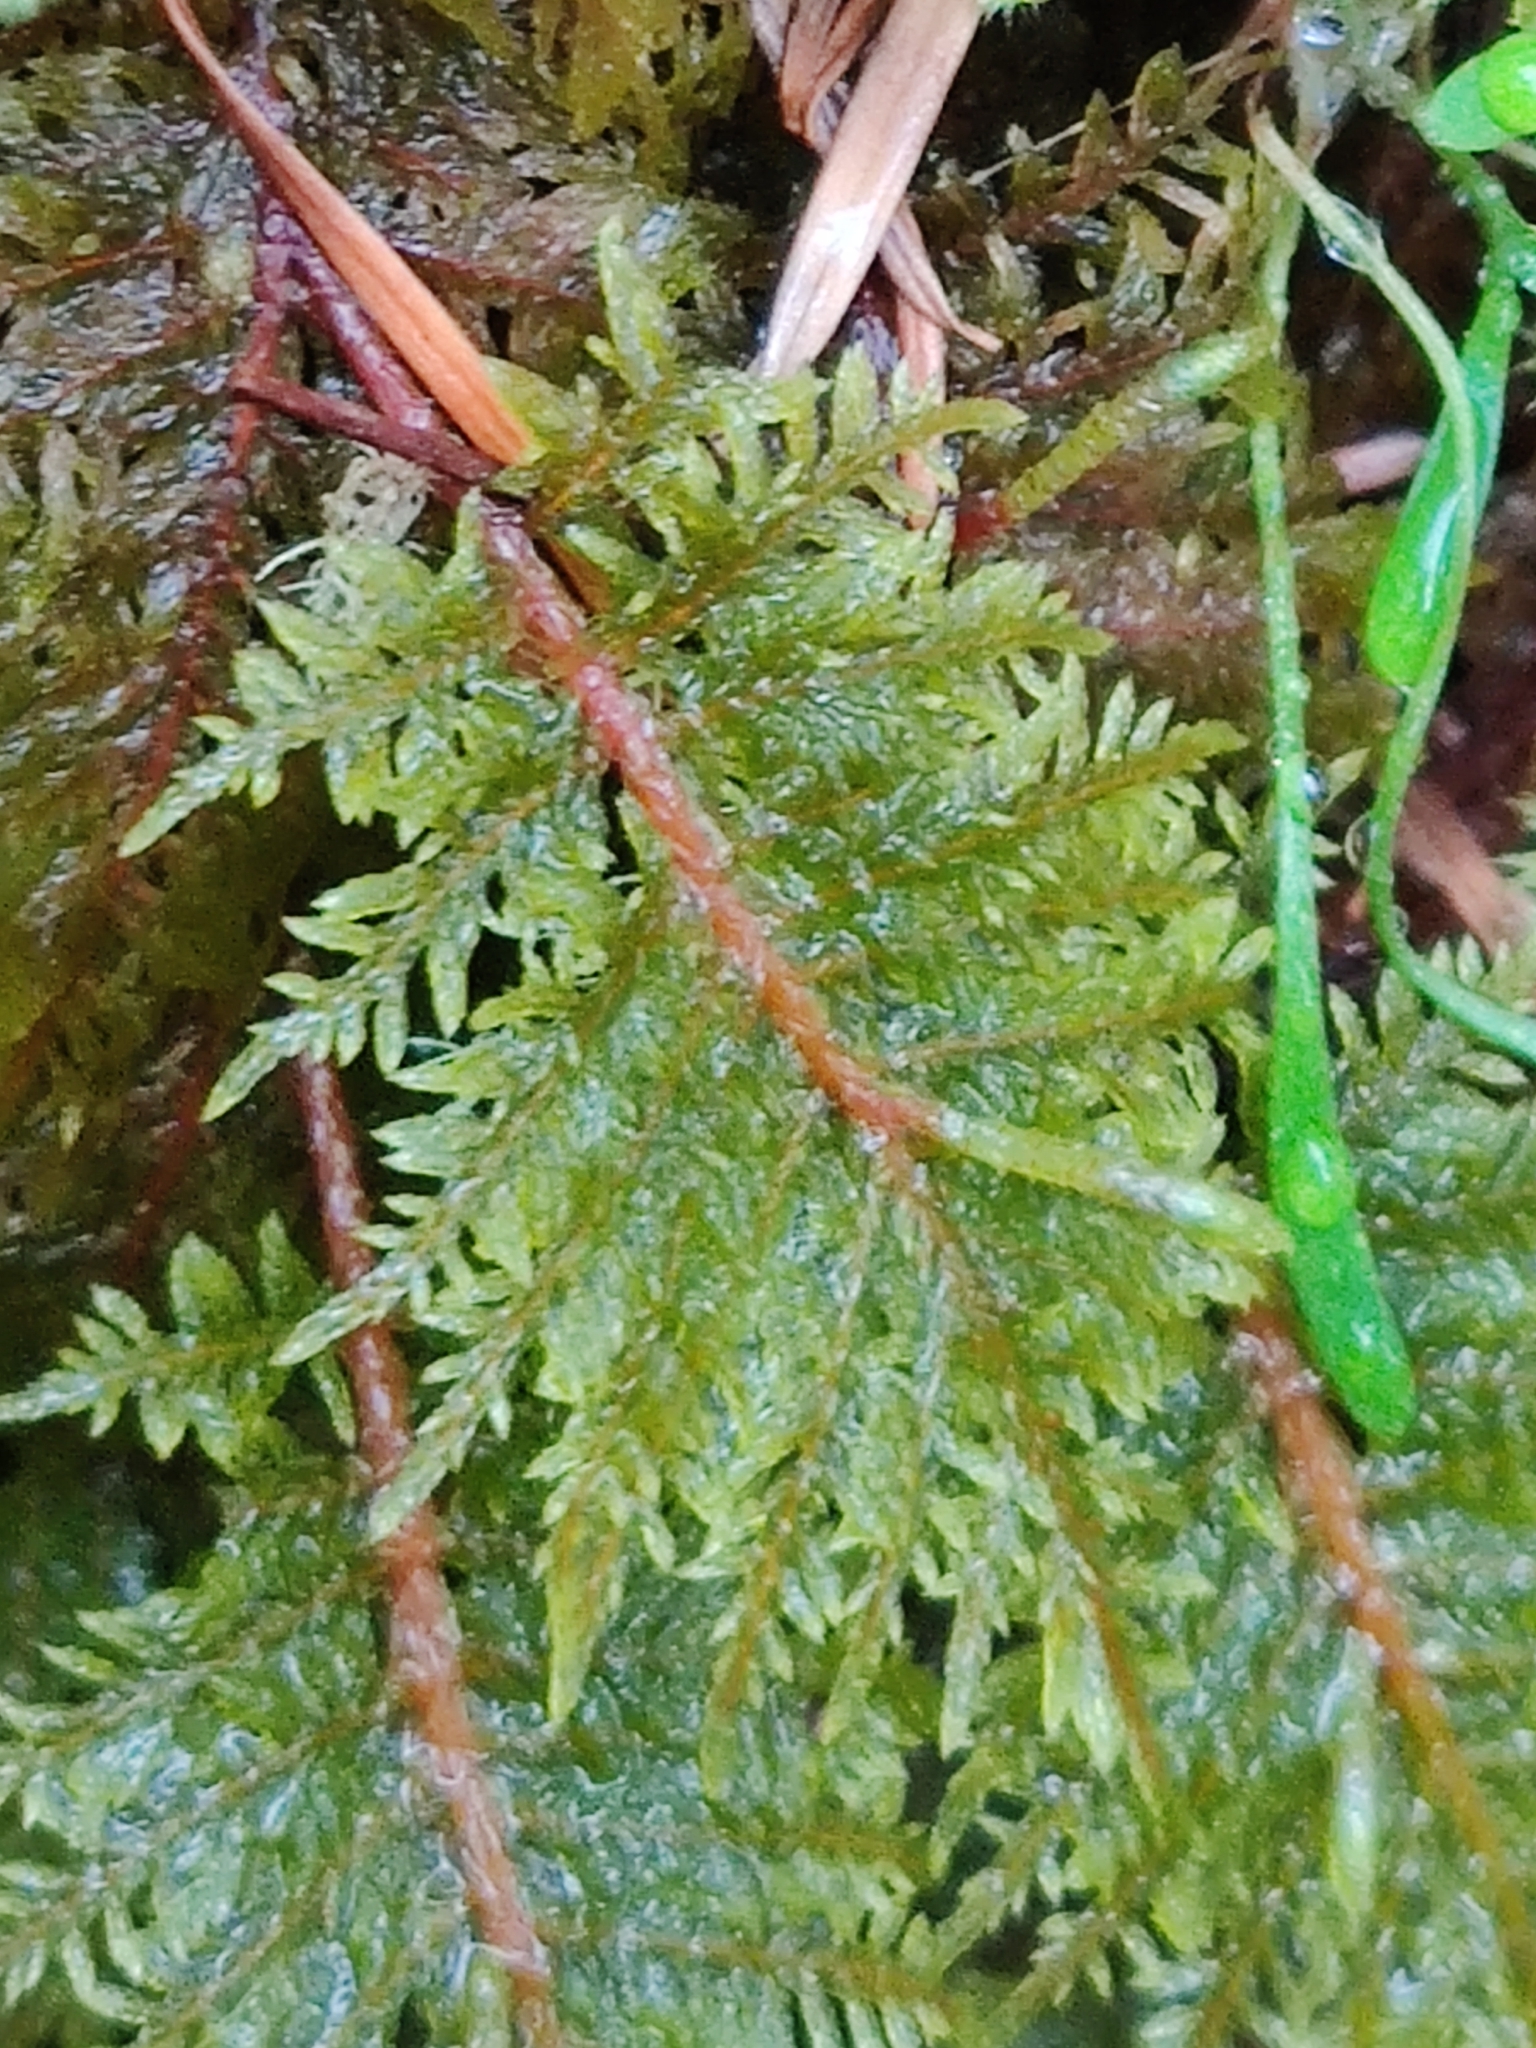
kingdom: Plantae
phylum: Bryophyta
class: Bryopsida
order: Hypnales
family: Hylocomiaceae
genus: Hylocomium
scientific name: Hylocomium splendens
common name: Stairstep moss
